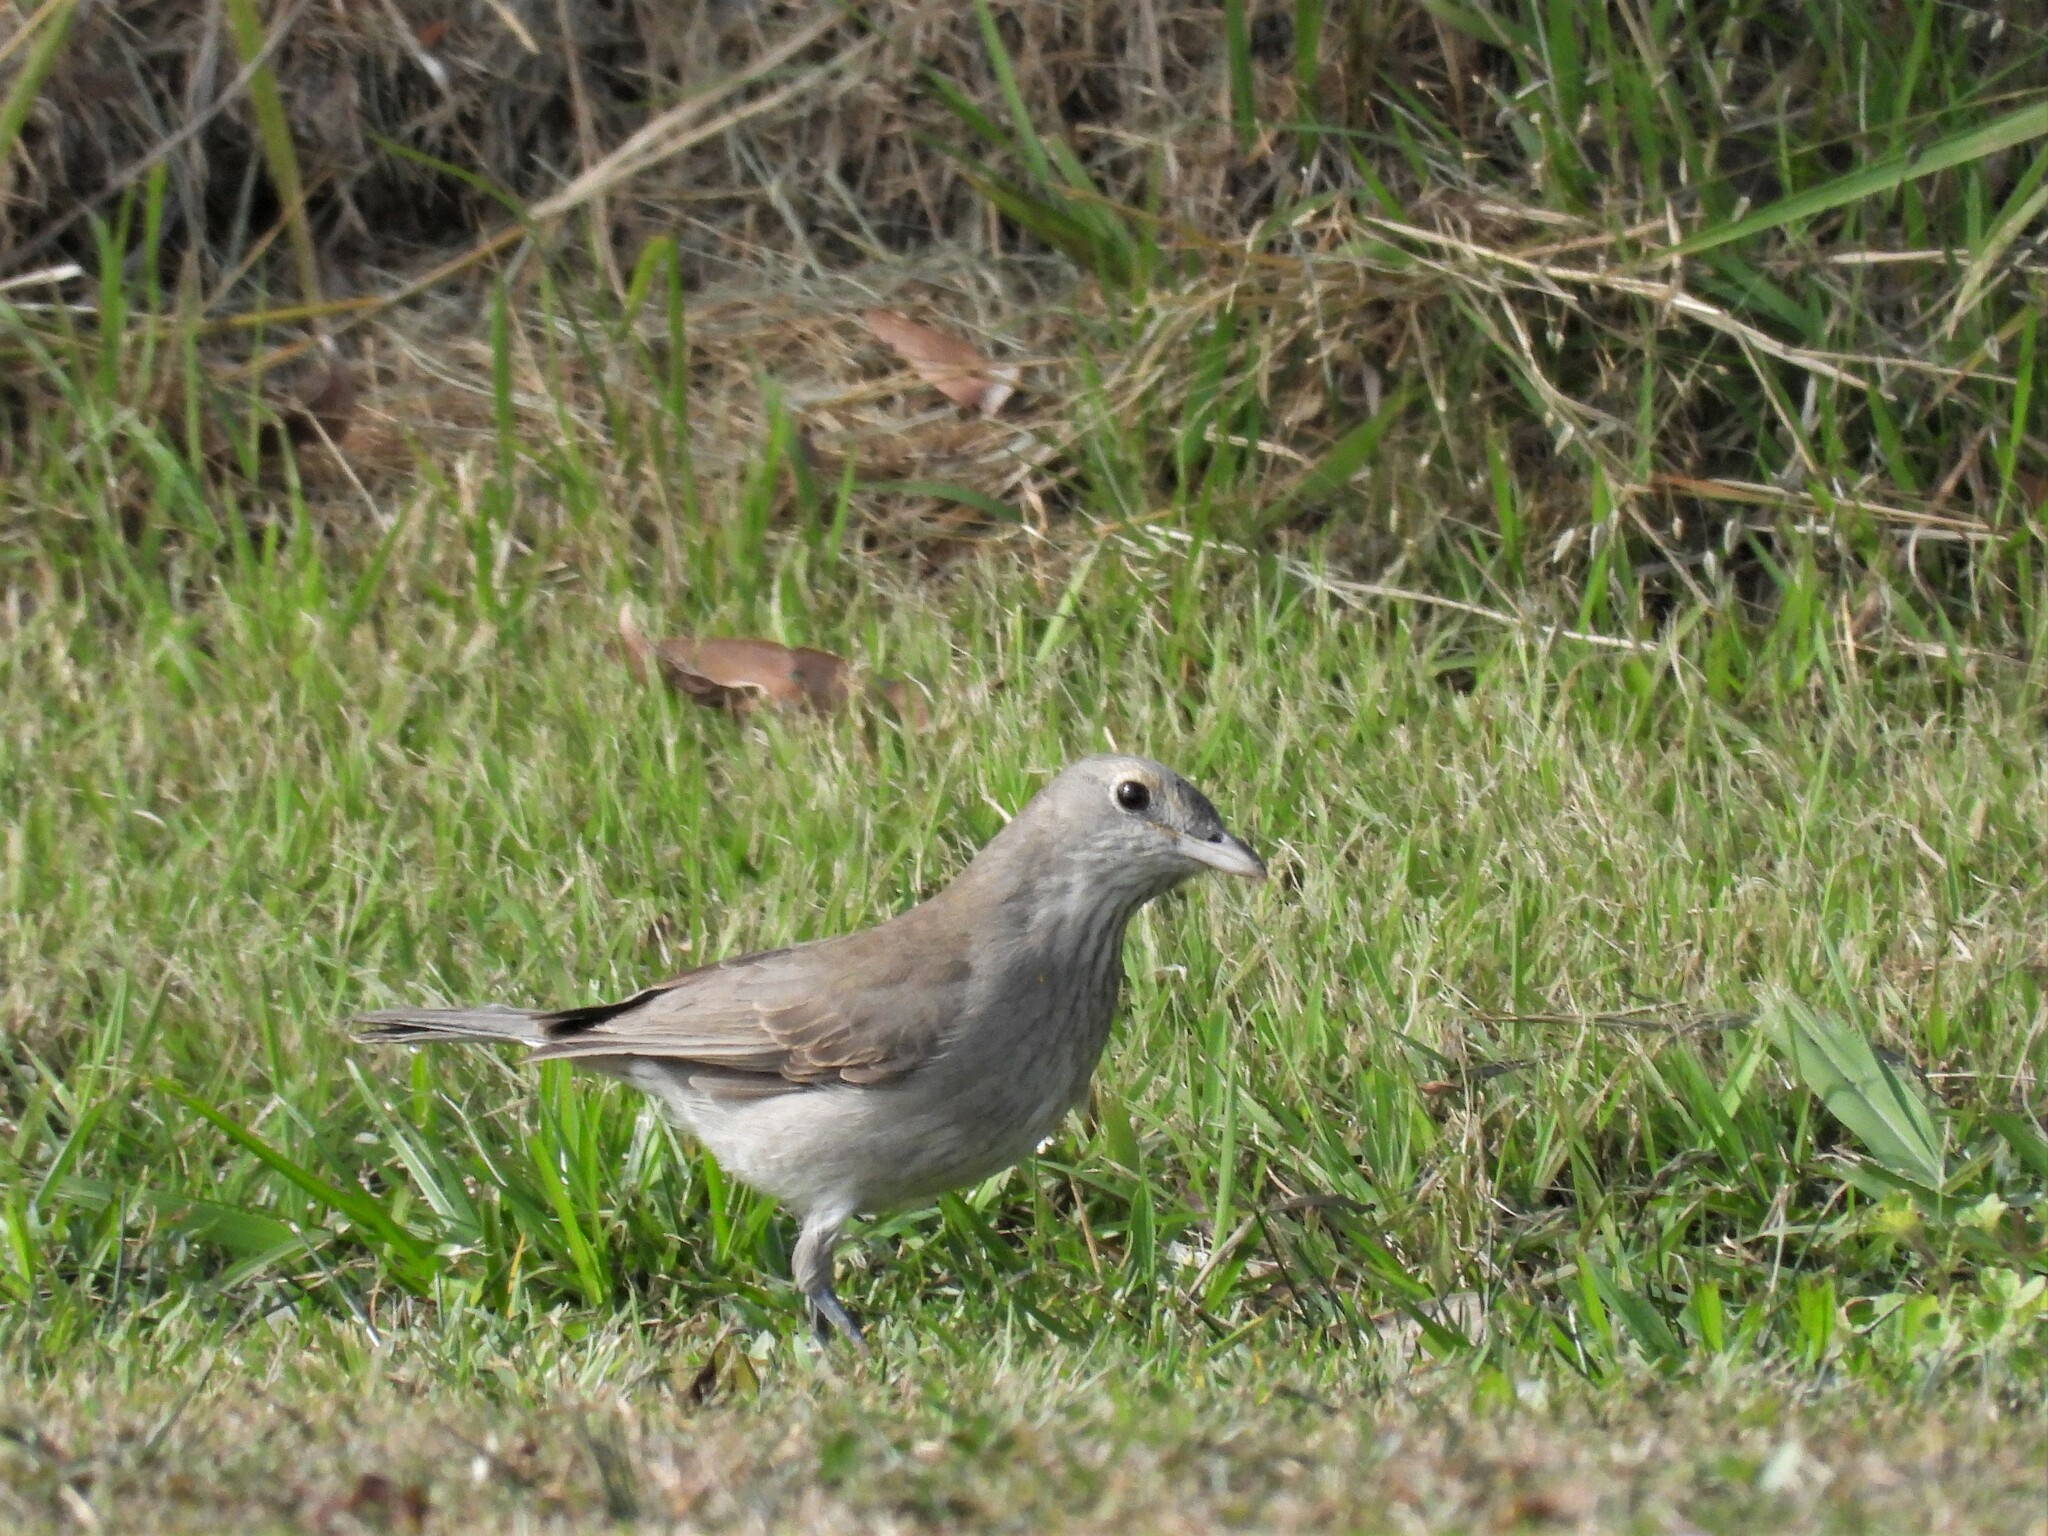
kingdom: Animalia
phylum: Chordata
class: Aves
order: Passeriformes
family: Pachycephalidae
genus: Colluricincla
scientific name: Colluricincla harmonica
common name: Grey shrikethrush
